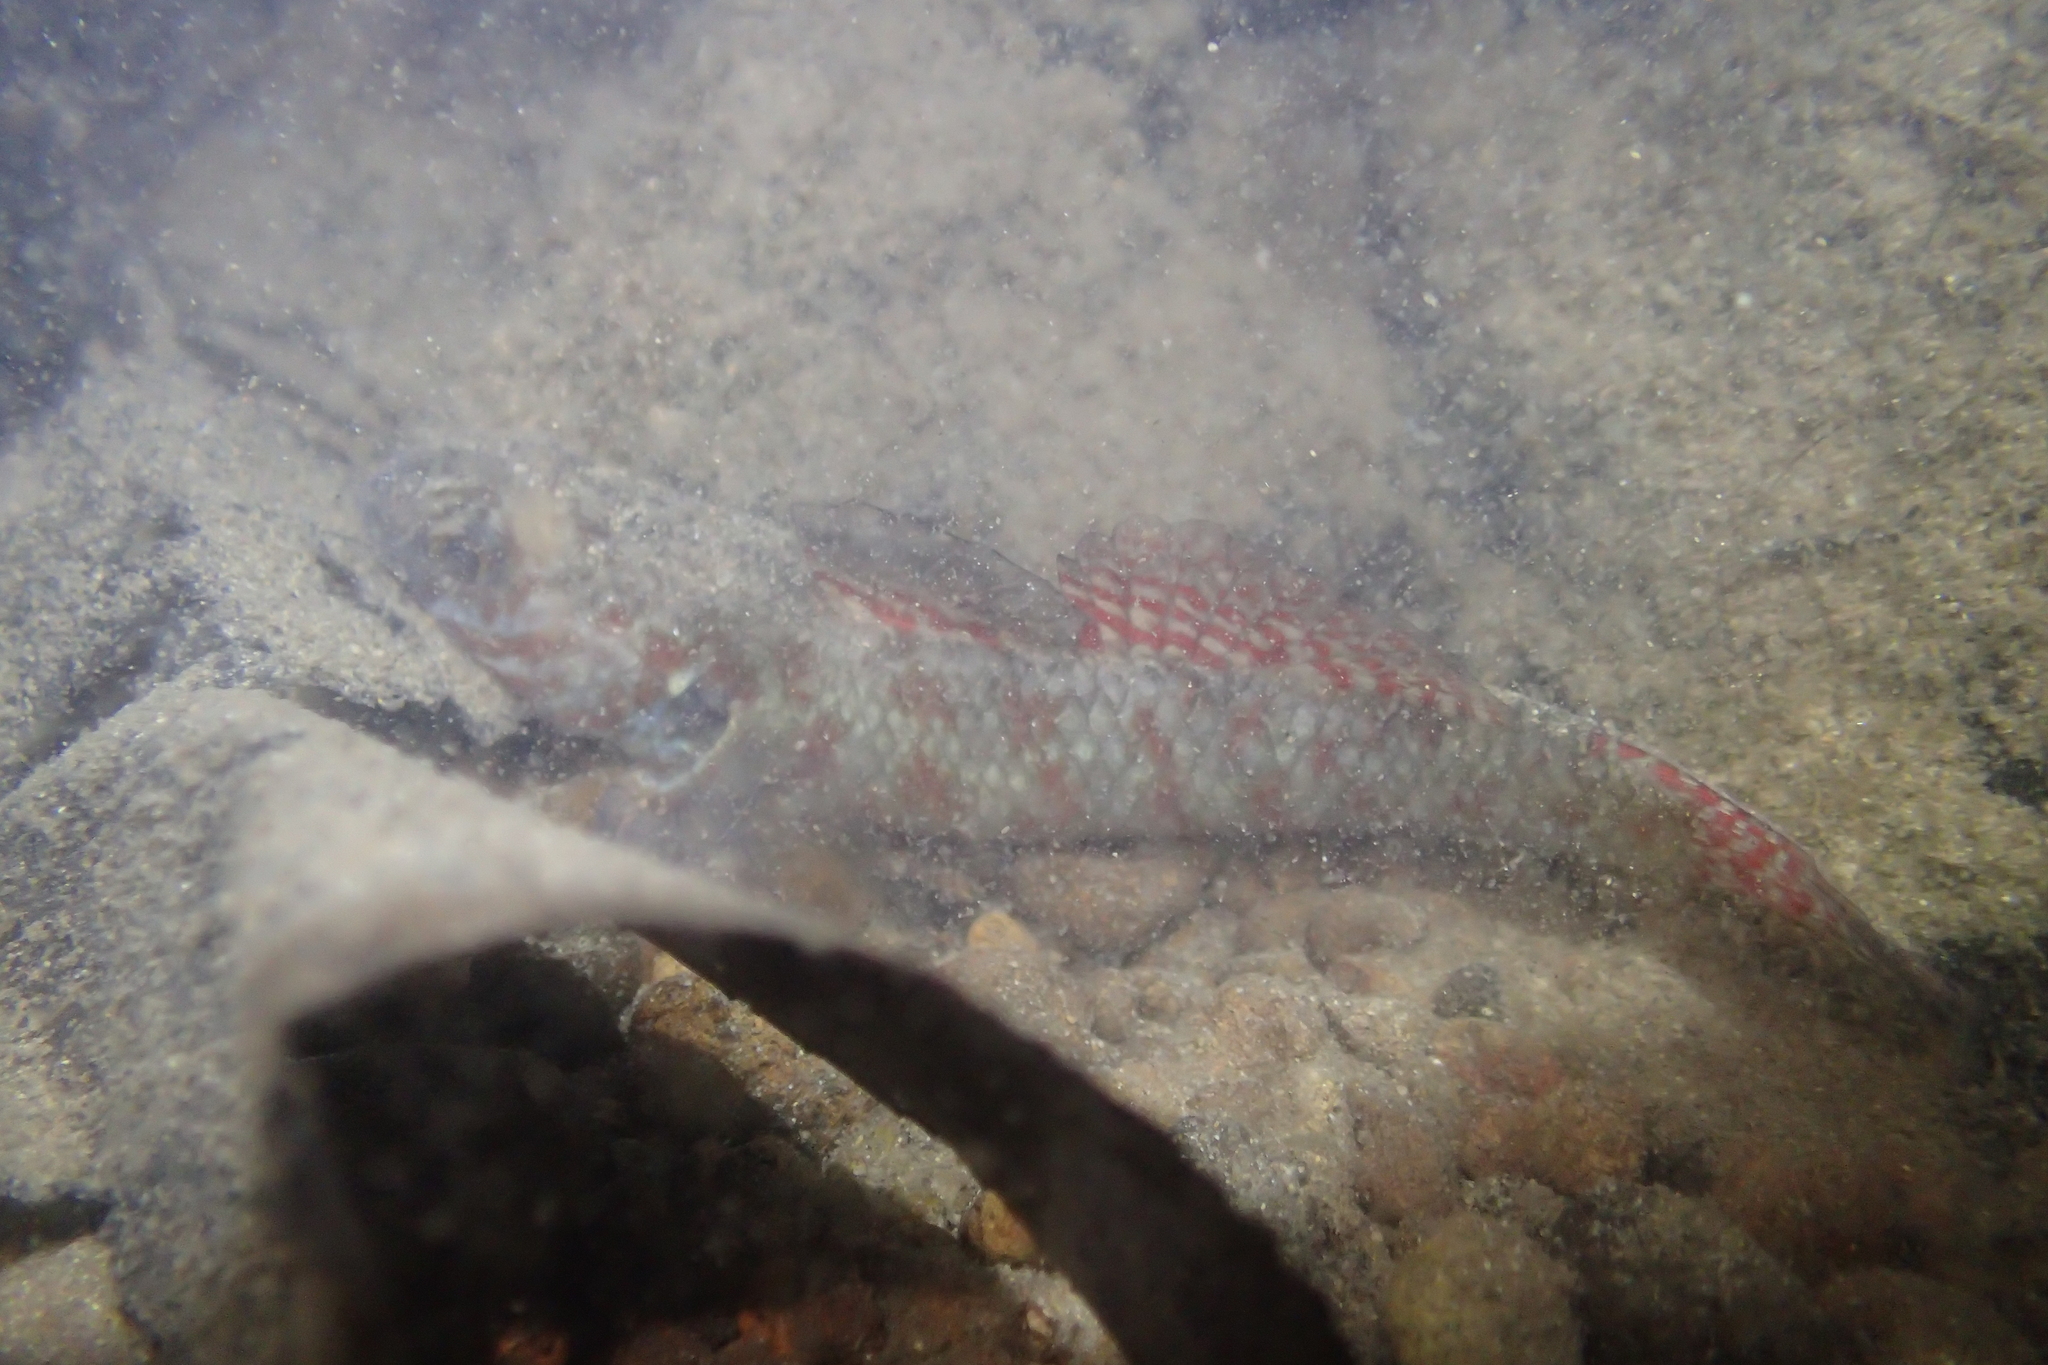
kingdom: Animalia
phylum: Chordata
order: Perciformes
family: Eleotridae
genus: Gobiomorphus
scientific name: Gobiomorphus huttoni
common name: Redfin bully
